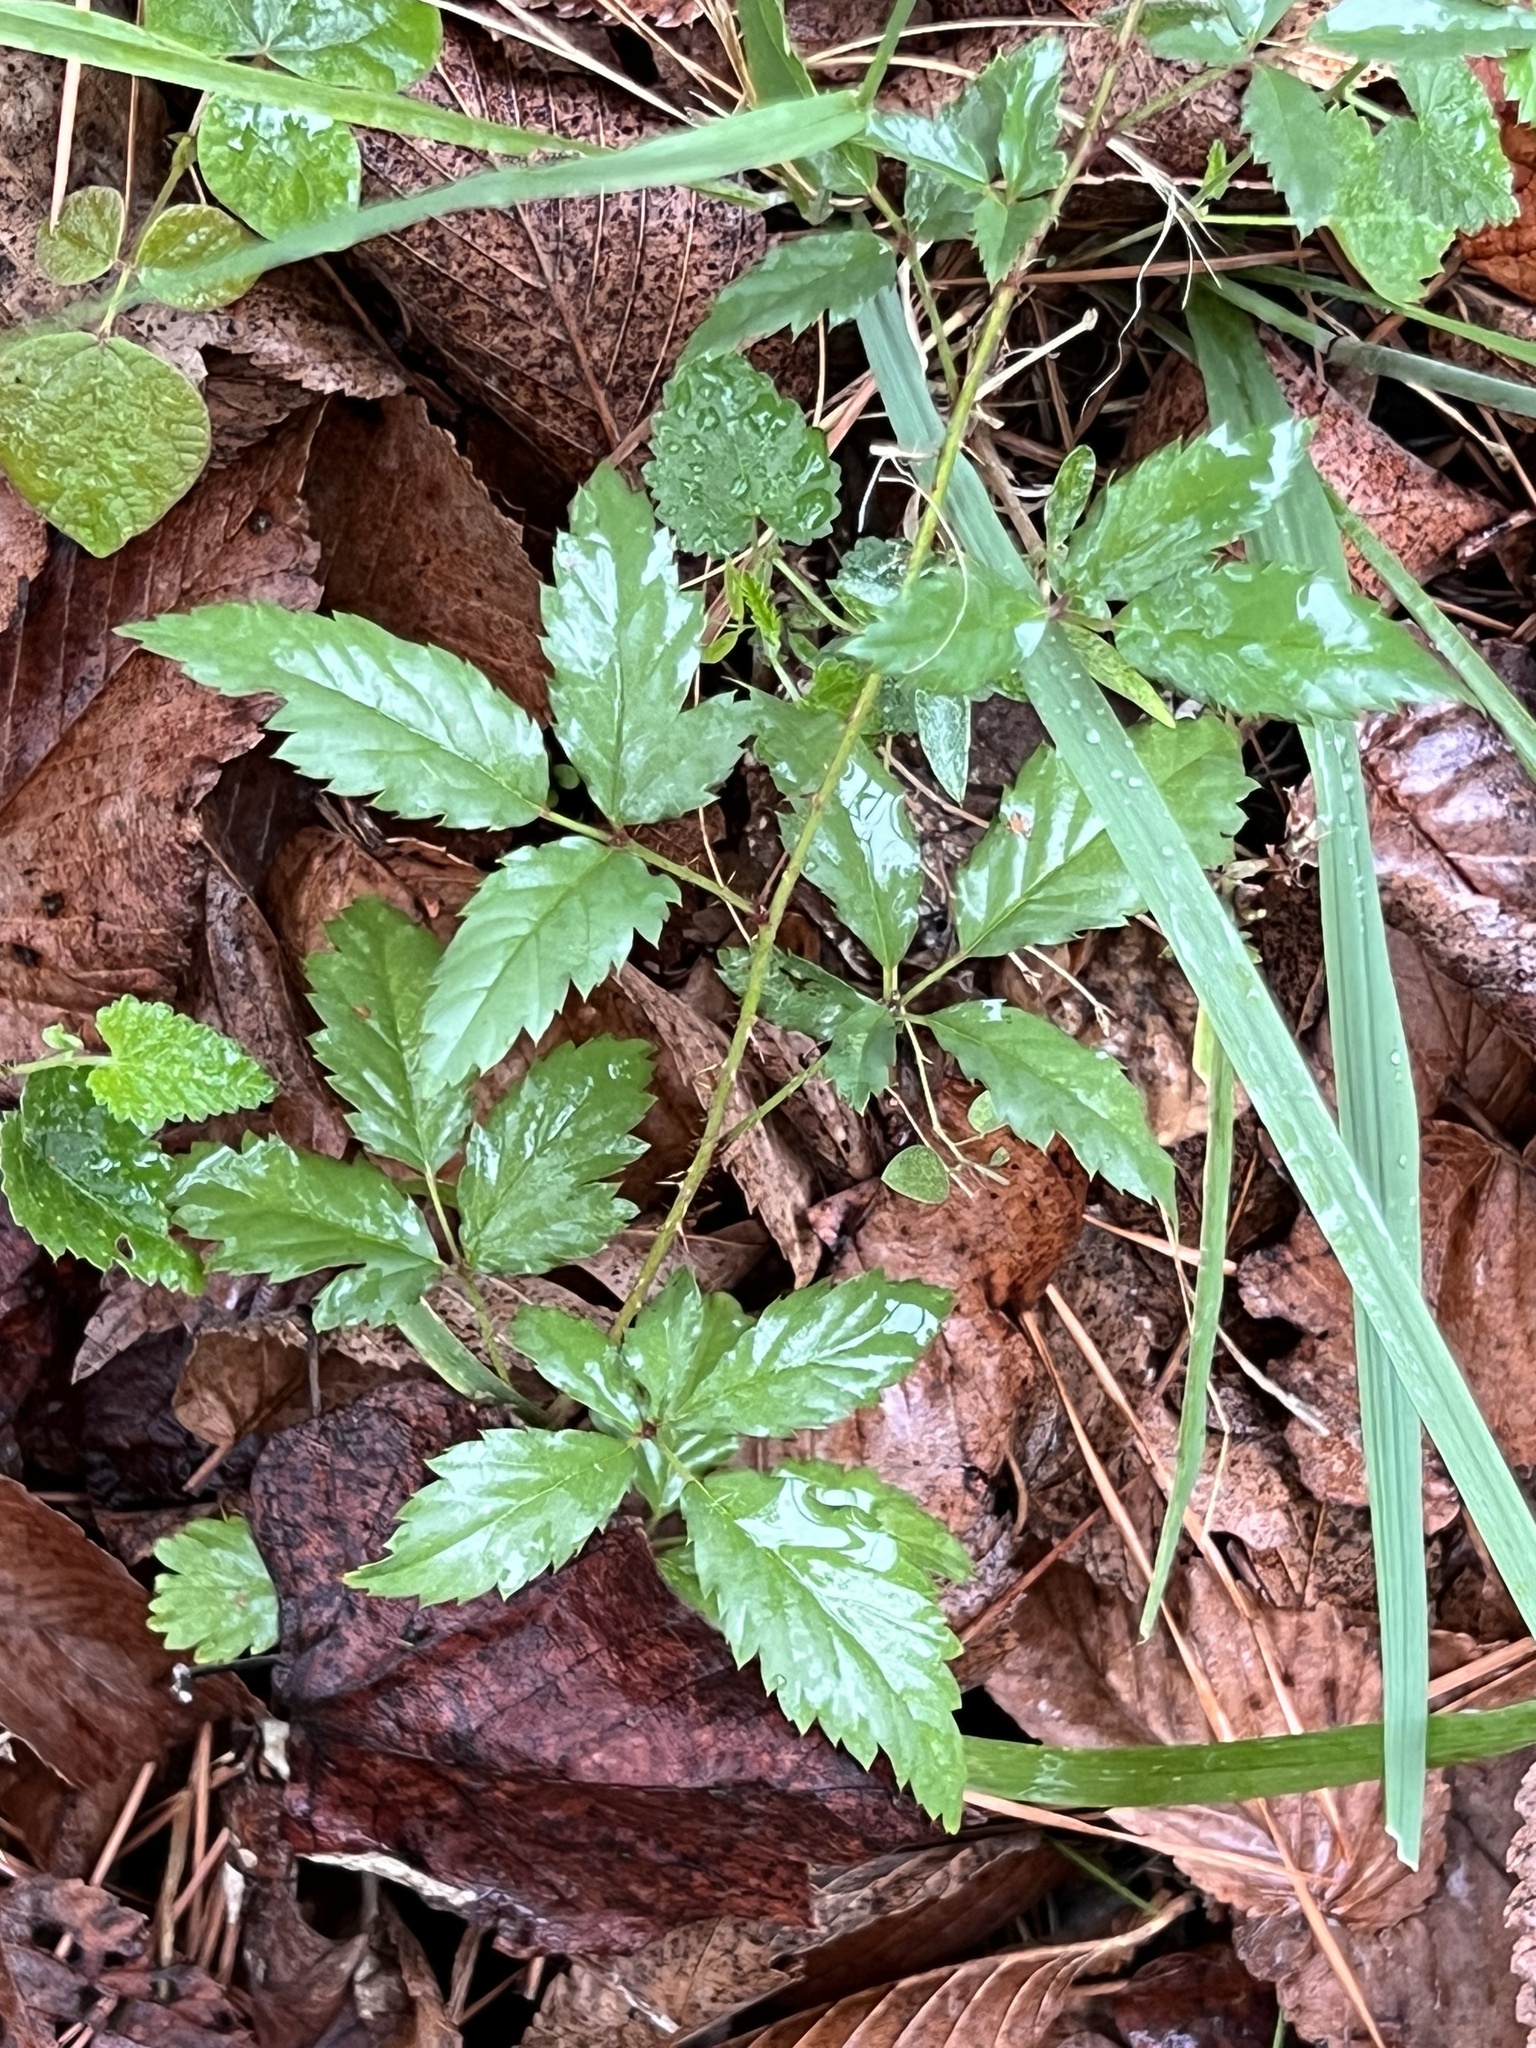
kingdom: Plantae
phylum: Tracheophyta
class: Magnoliopsida
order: Rosales
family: Rosaceae
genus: Rubus
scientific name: Rubus trivialis
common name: Southern dewberry
